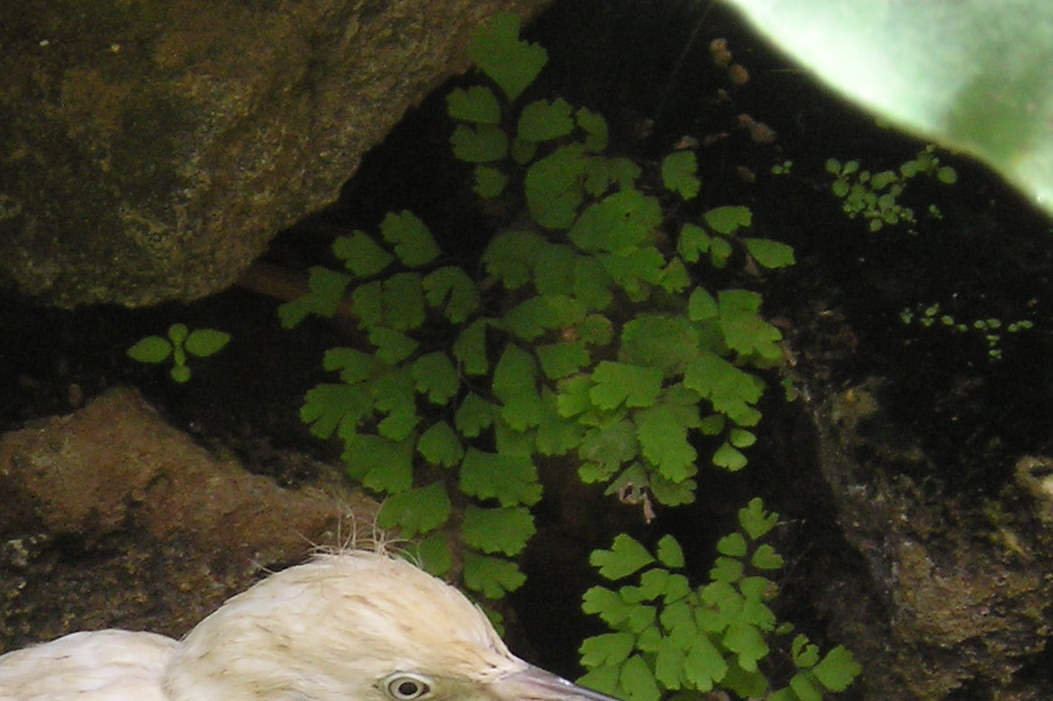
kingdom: Plantae
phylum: Tracheophyta
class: Polypodiopsida
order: Polypodiales
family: Pteridaceae
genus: Adiantum
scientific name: Adiantum capillus-veneris
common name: Maidenhair fern
